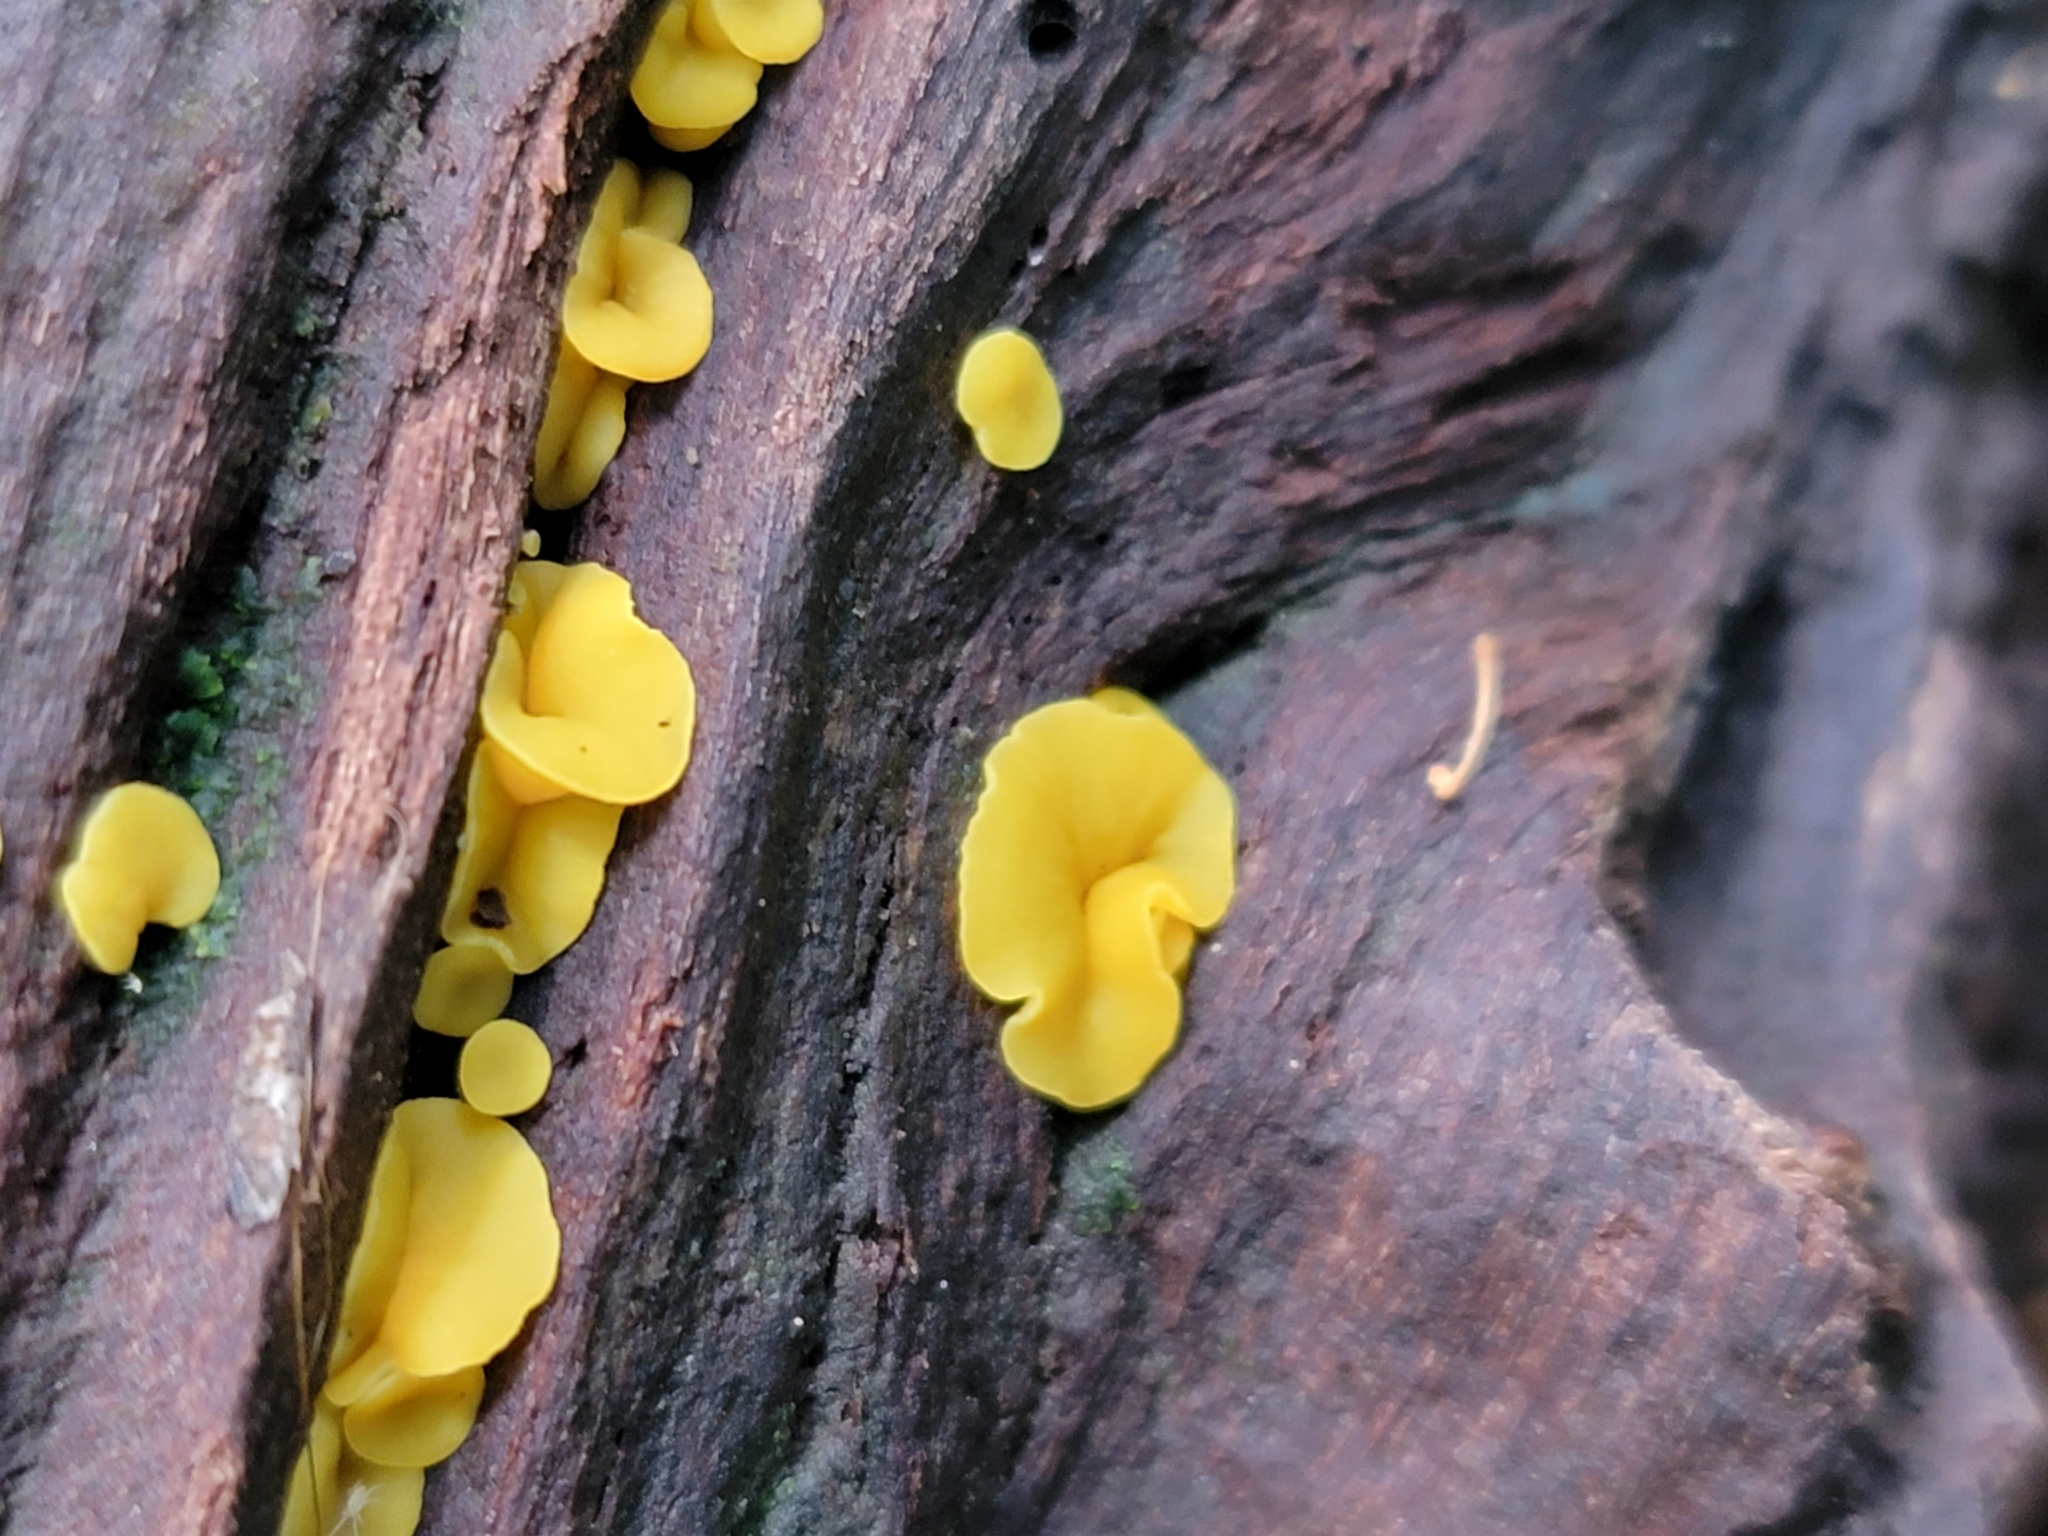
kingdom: Fungi
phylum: Ascomycota
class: Leotiomycetes
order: Helotiales
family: Pezizellaceae
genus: Calycina
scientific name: Calycina citrina
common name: Yellow fairy cups
